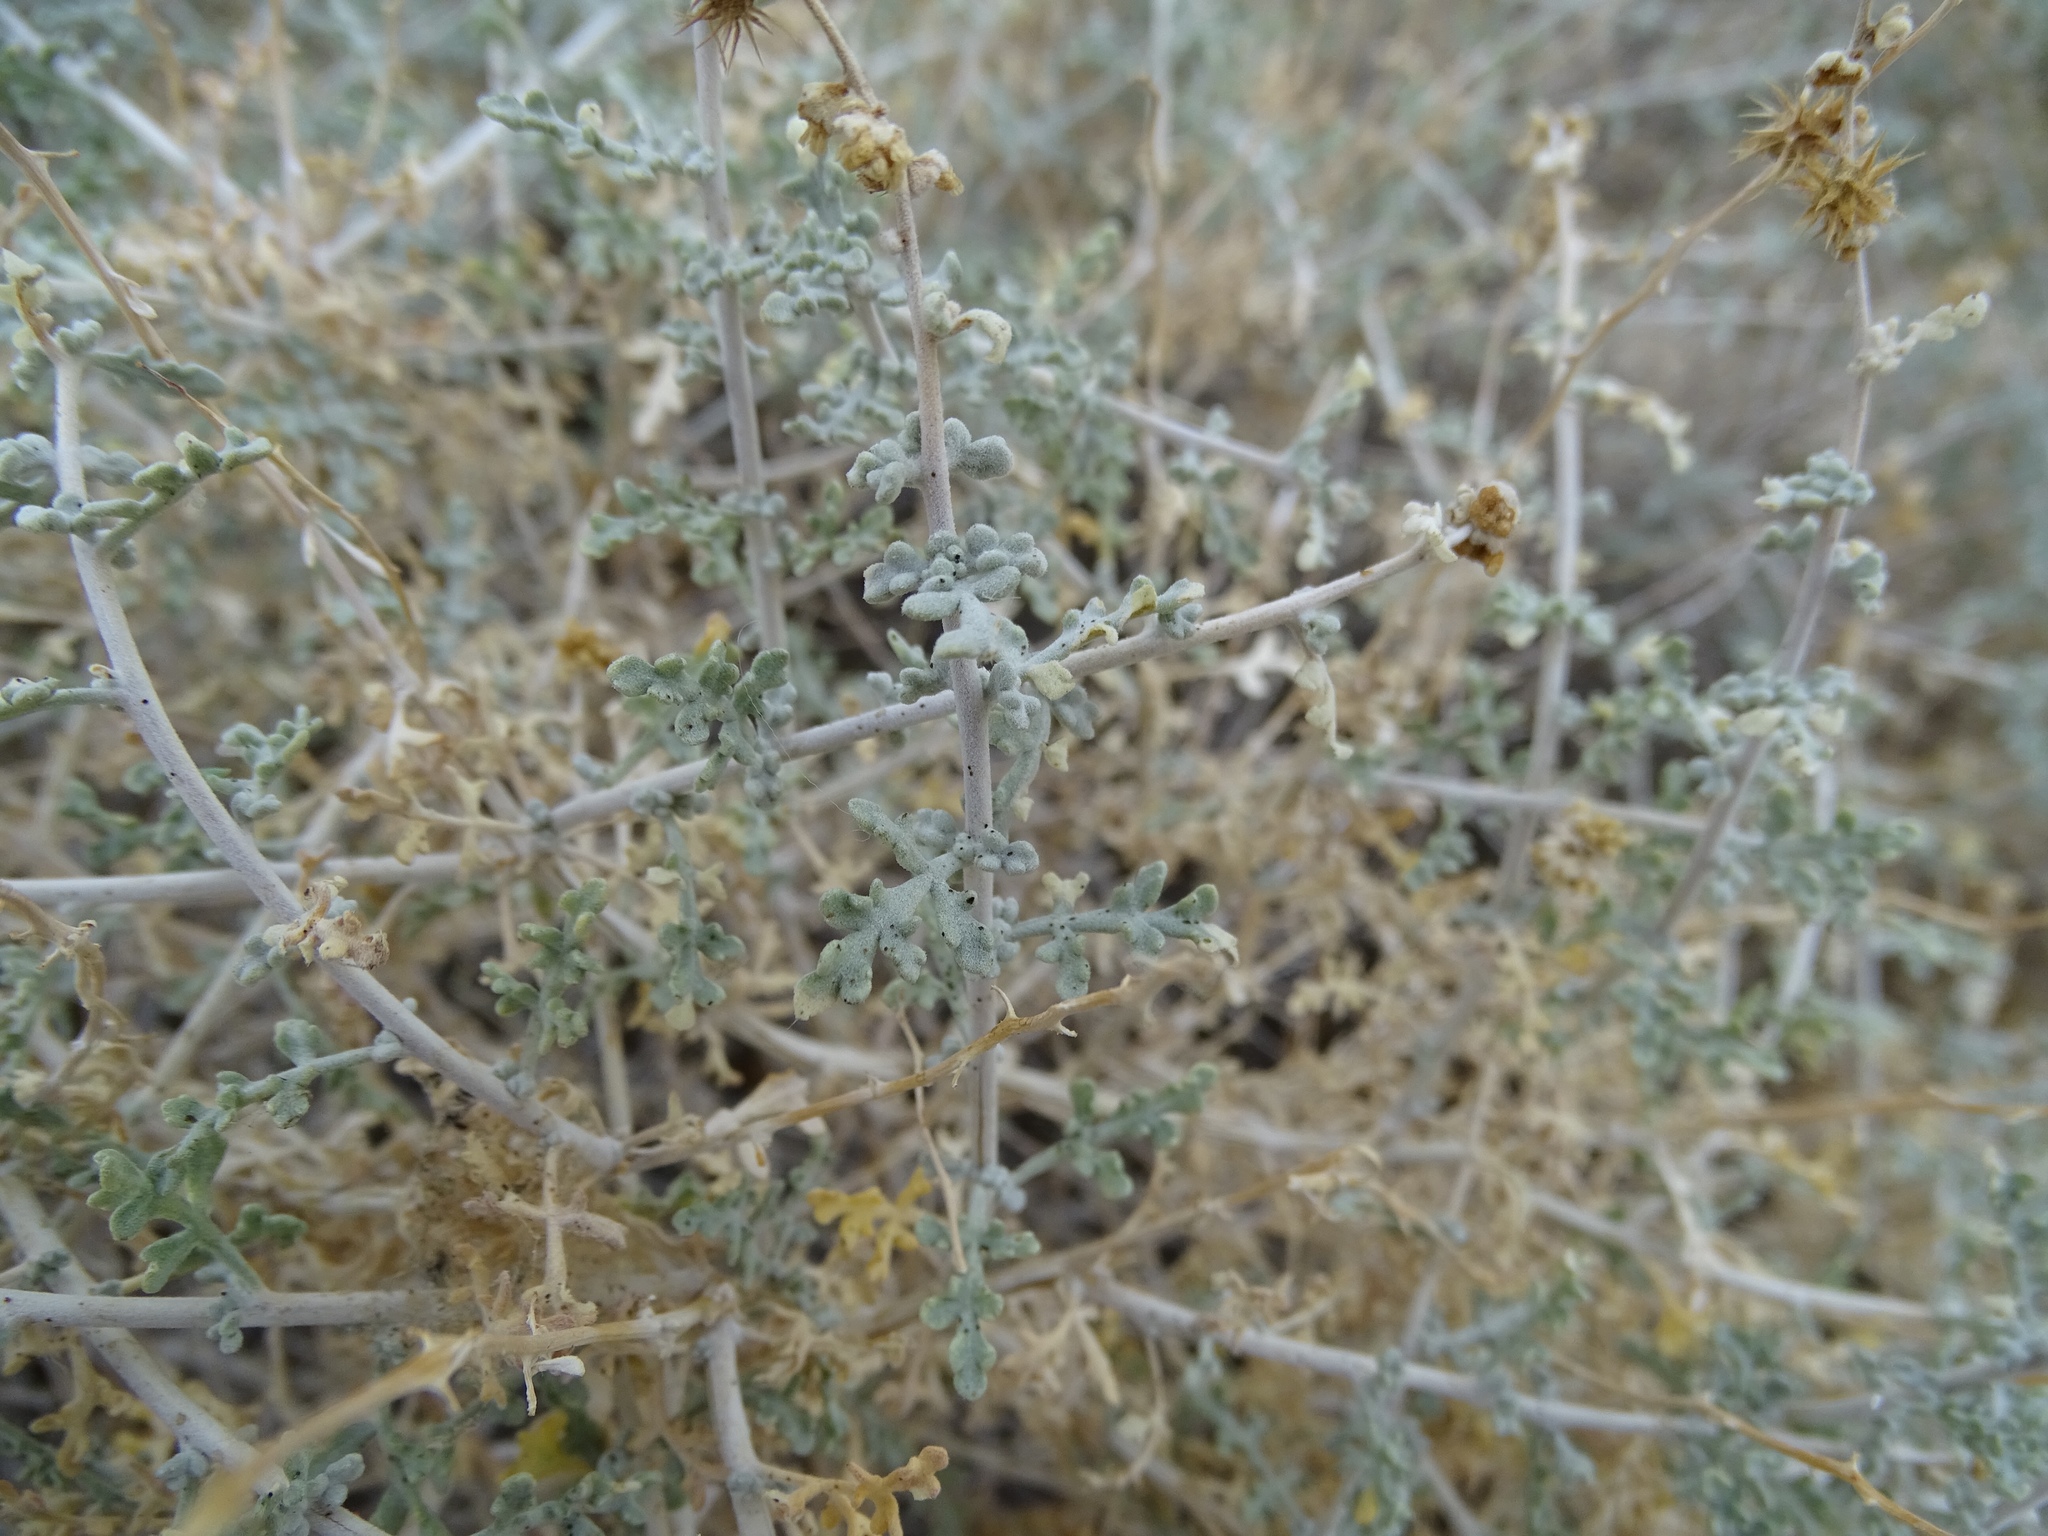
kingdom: Plantae
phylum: Tracheophyta
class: Magnoliopsida
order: Asterales
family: Asteraceae
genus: Ambrosia
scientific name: Ambrosia dumosa
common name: Bur-sage
